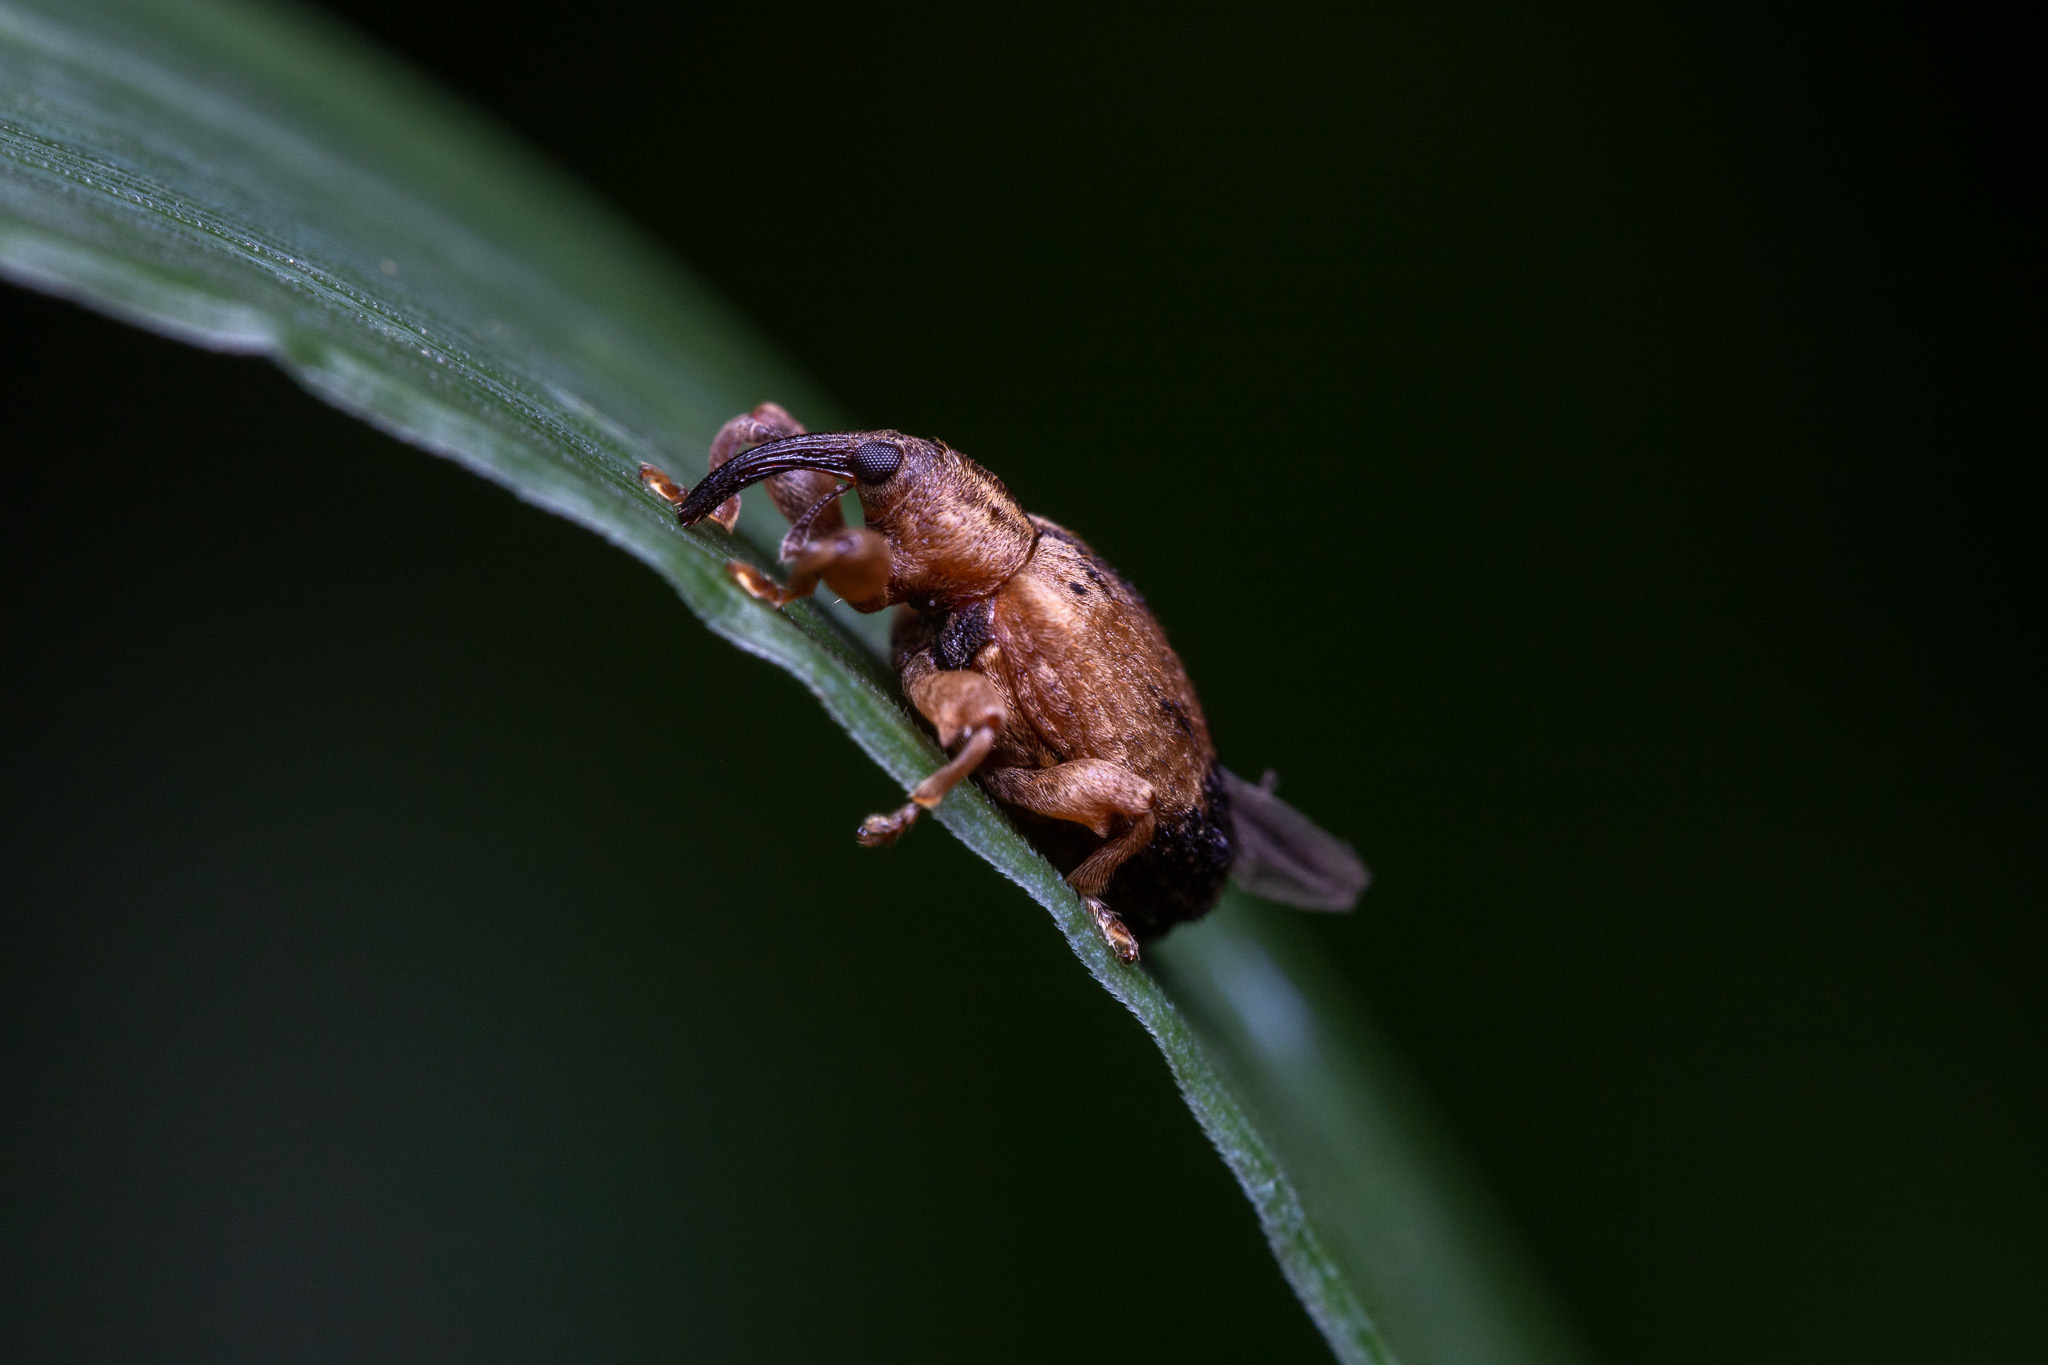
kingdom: Animalia
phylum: Arthropoda
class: Insecta
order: Coleoptera
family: Curculionidae
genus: Ochyromera
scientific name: Ochyromera ligustri
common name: Weevil
